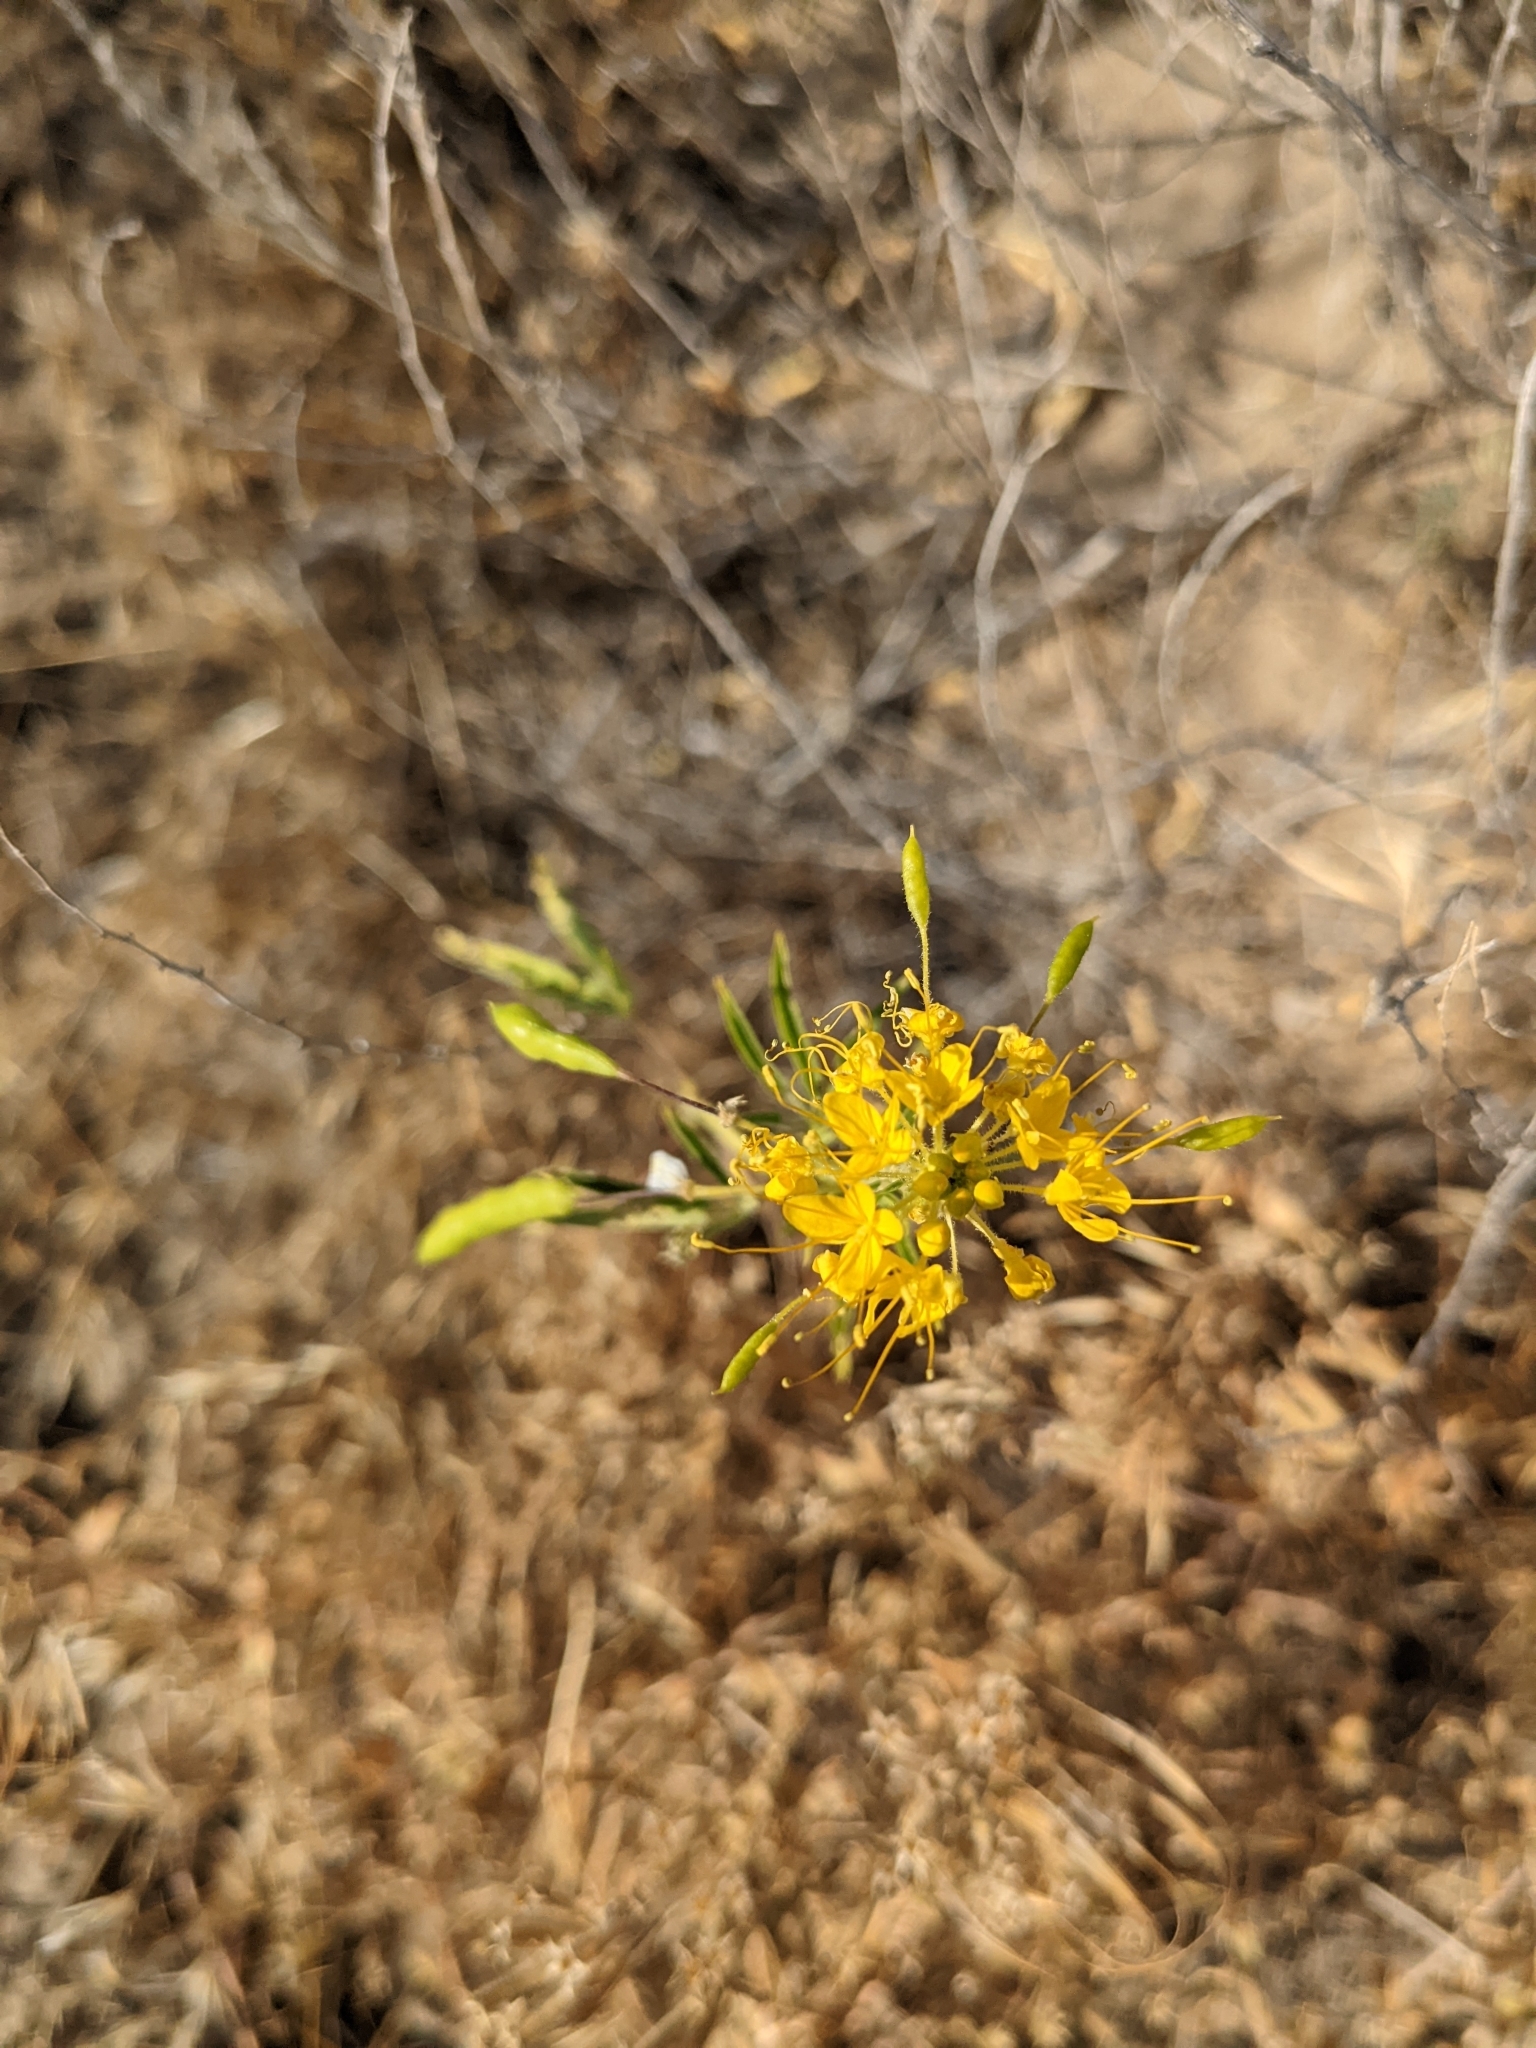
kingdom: Plantae
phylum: Tracheophyta
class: Magnoliopsida
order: Brassicales
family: Cleomaceae
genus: Cleomella
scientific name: Cleomella lutea
